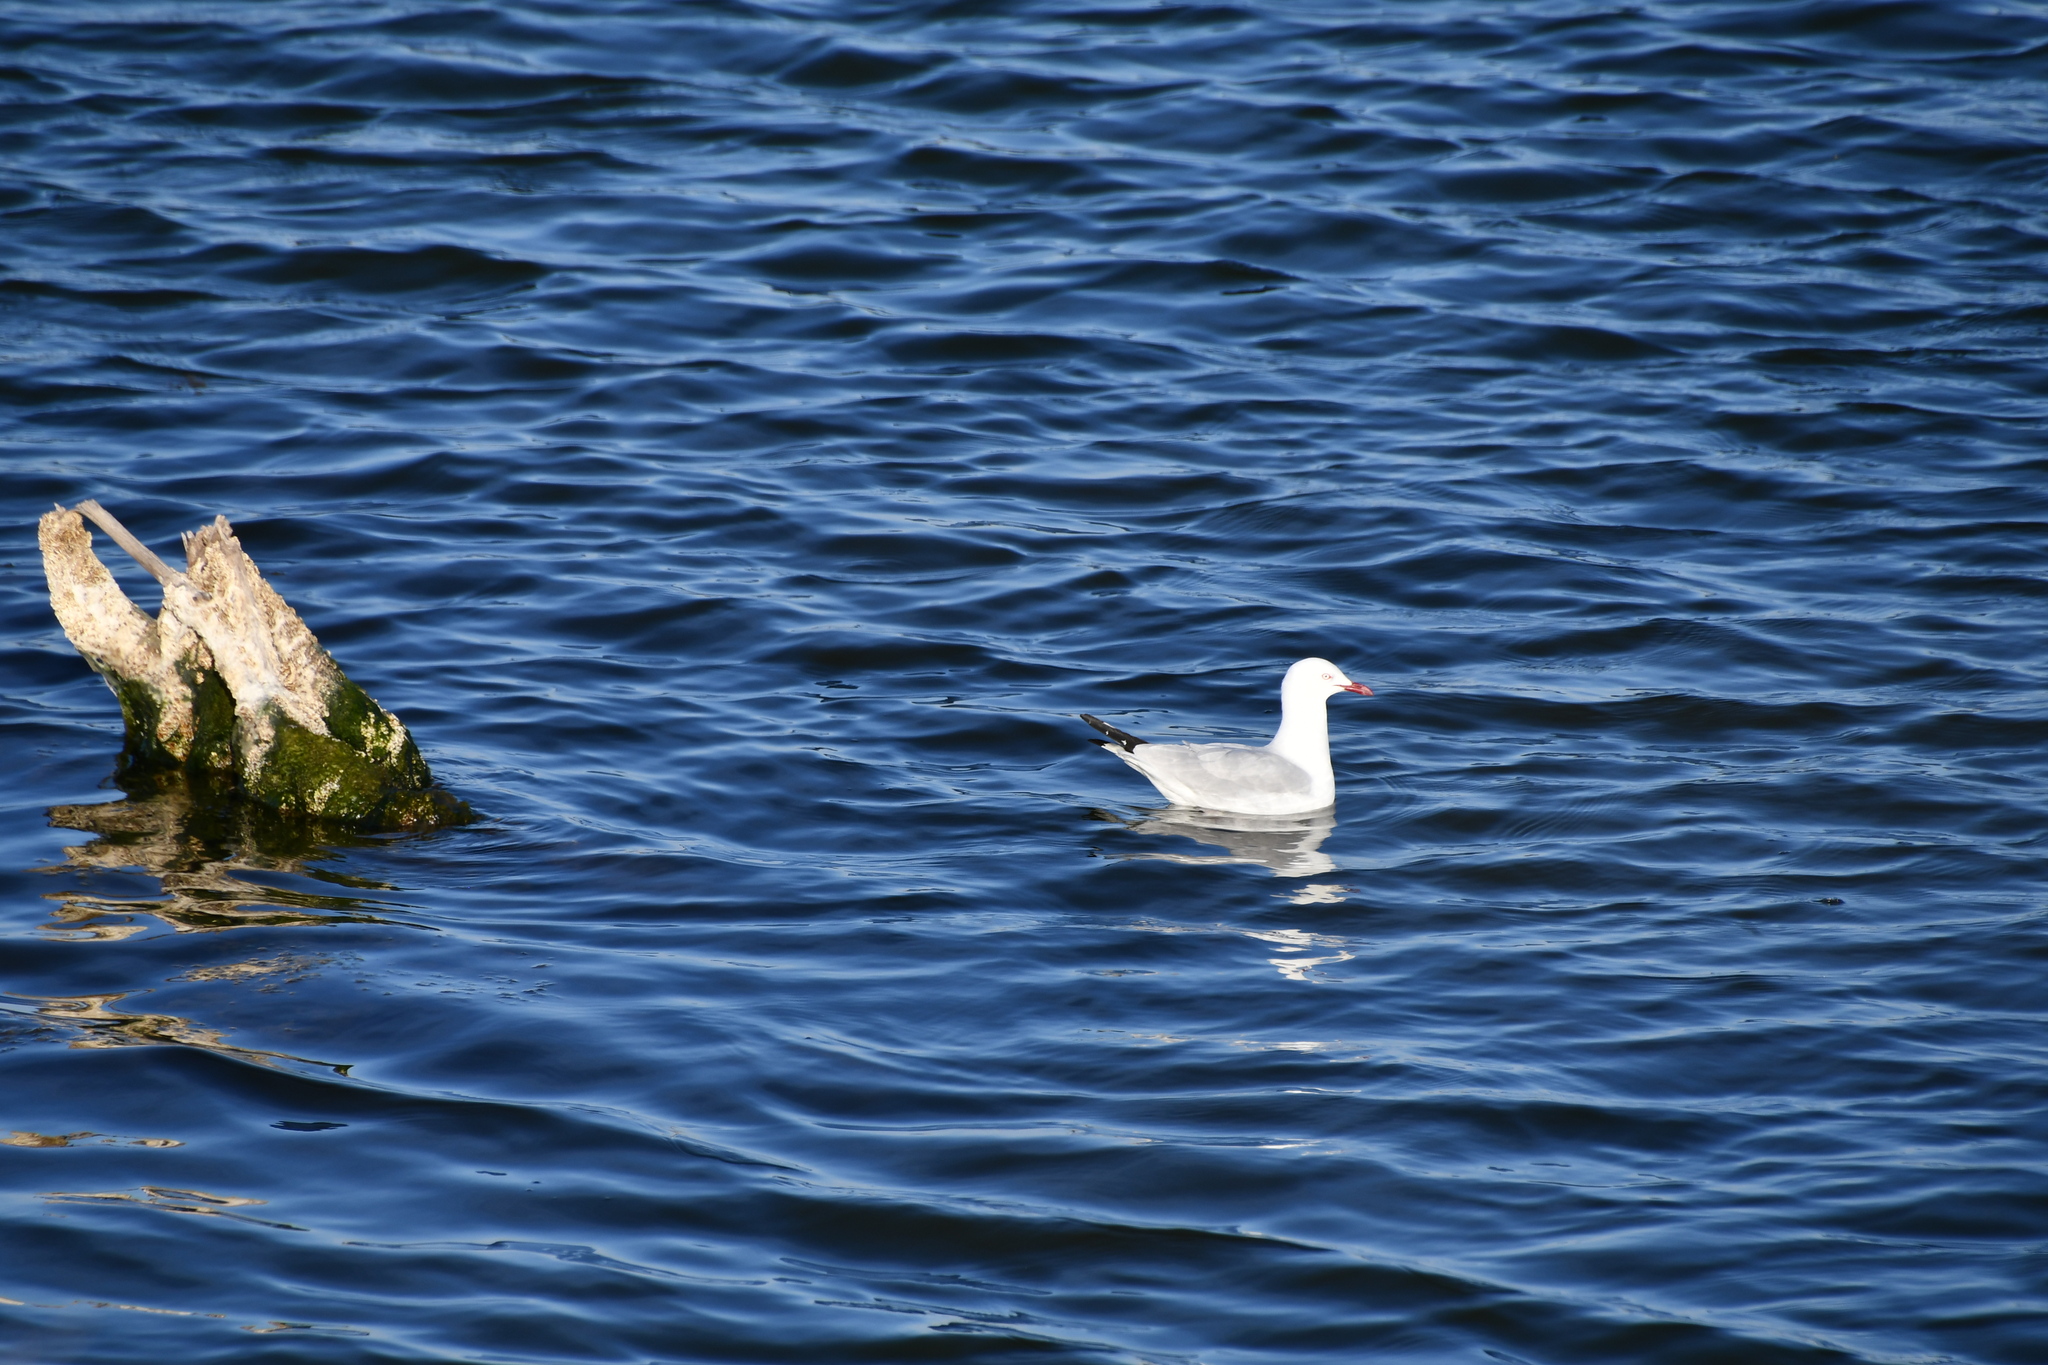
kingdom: Animalia
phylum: Chordata
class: Aves
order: Charadriiformes
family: Laridae
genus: Chroicocephalus
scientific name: Chroicocephalus novaehollandiae
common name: Silver gull
